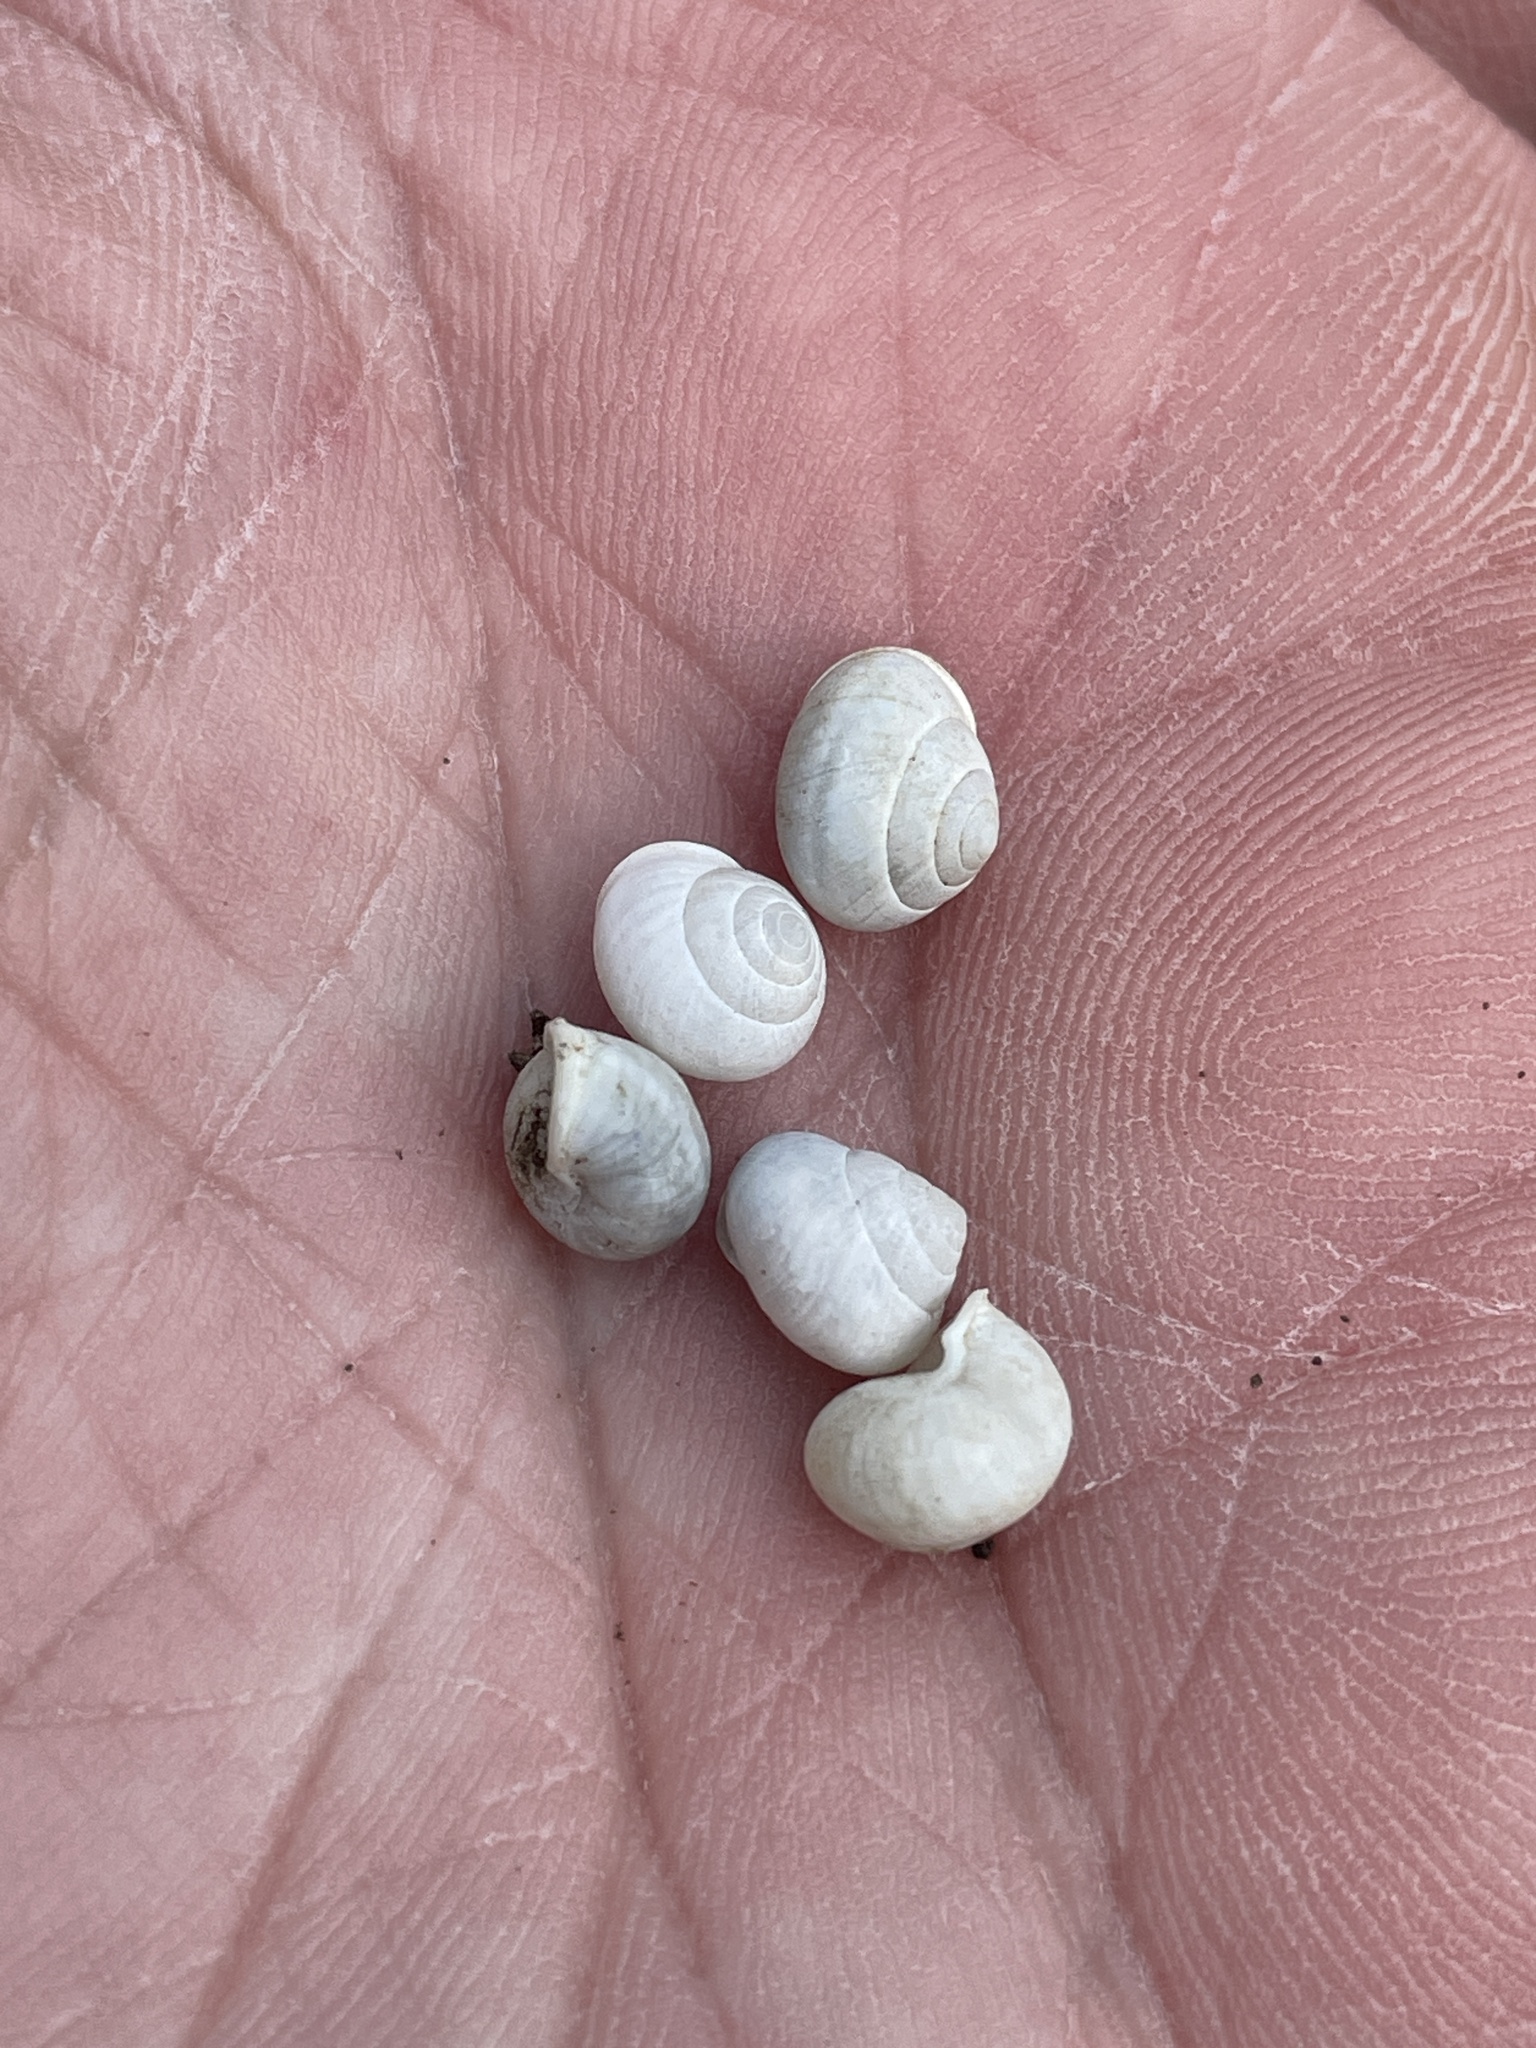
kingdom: Animalia
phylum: Mollusca
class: Gastropoda
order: Cycloneritida
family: Helicinidae
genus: Helicina
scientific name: Helicina orbiculata
